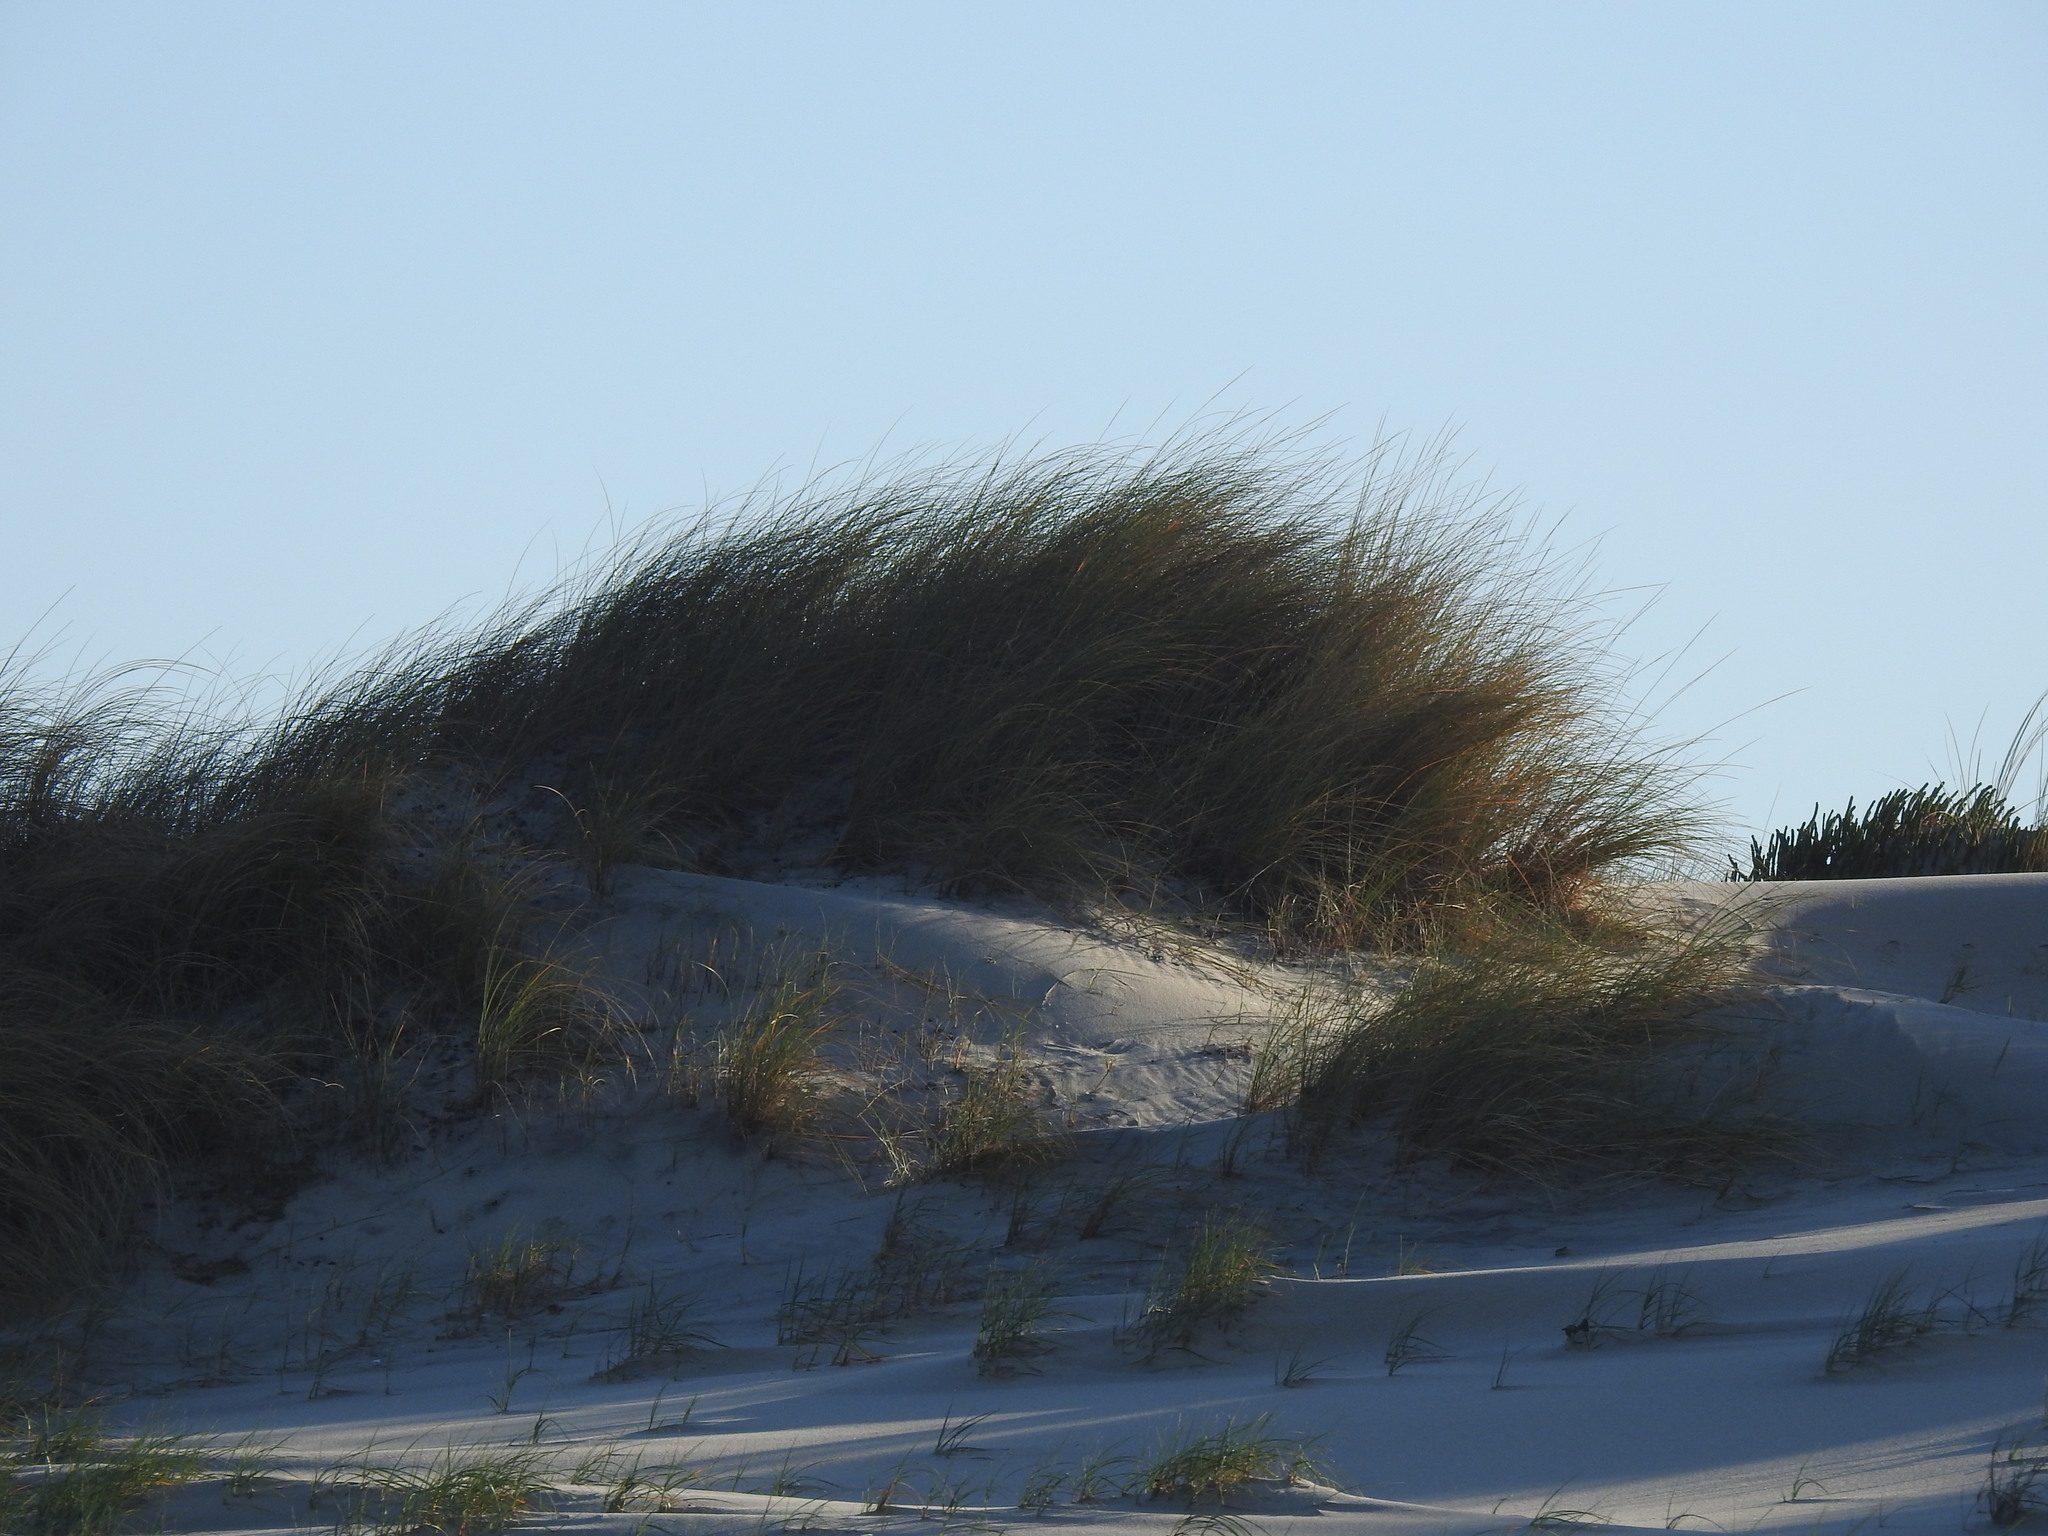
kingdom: Plantae
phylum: Tracheophyta
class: Liliopsida
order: Poales
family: Poaceae
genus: Calamagrostis
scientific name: Calamagrostis arenaria
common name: European beachgrass
